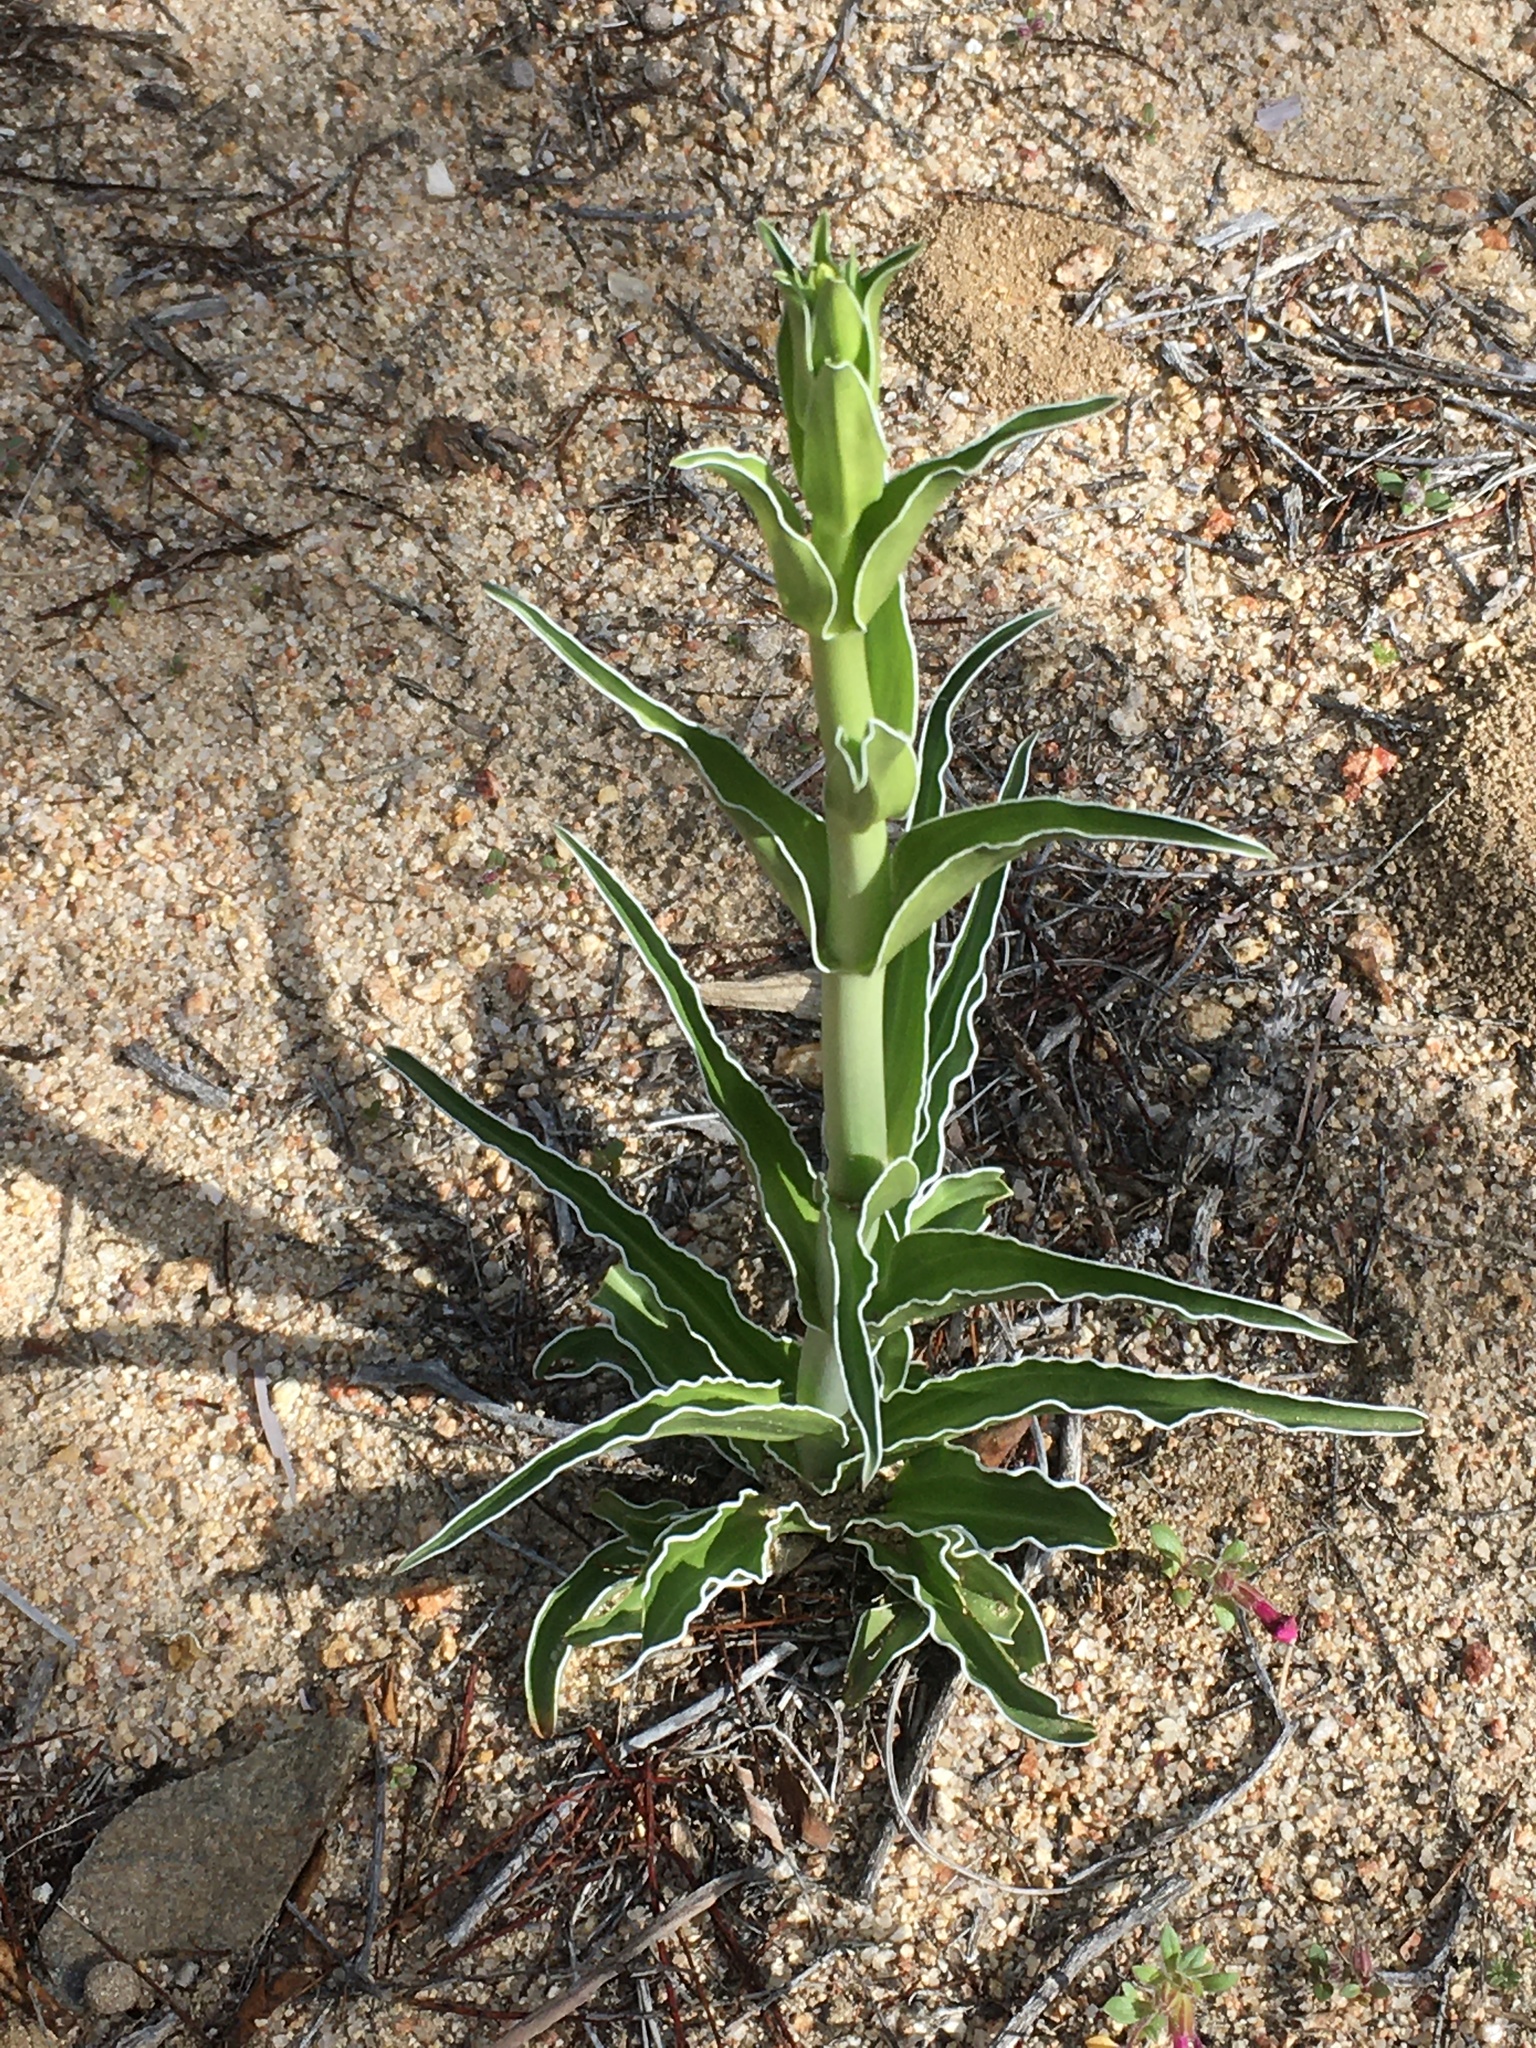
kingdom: Plantae
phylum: Tracheophyta
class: Magnoliopsida
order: Gentianales
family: Gentianaceae
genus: Frasera
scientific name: Frasera parryi
